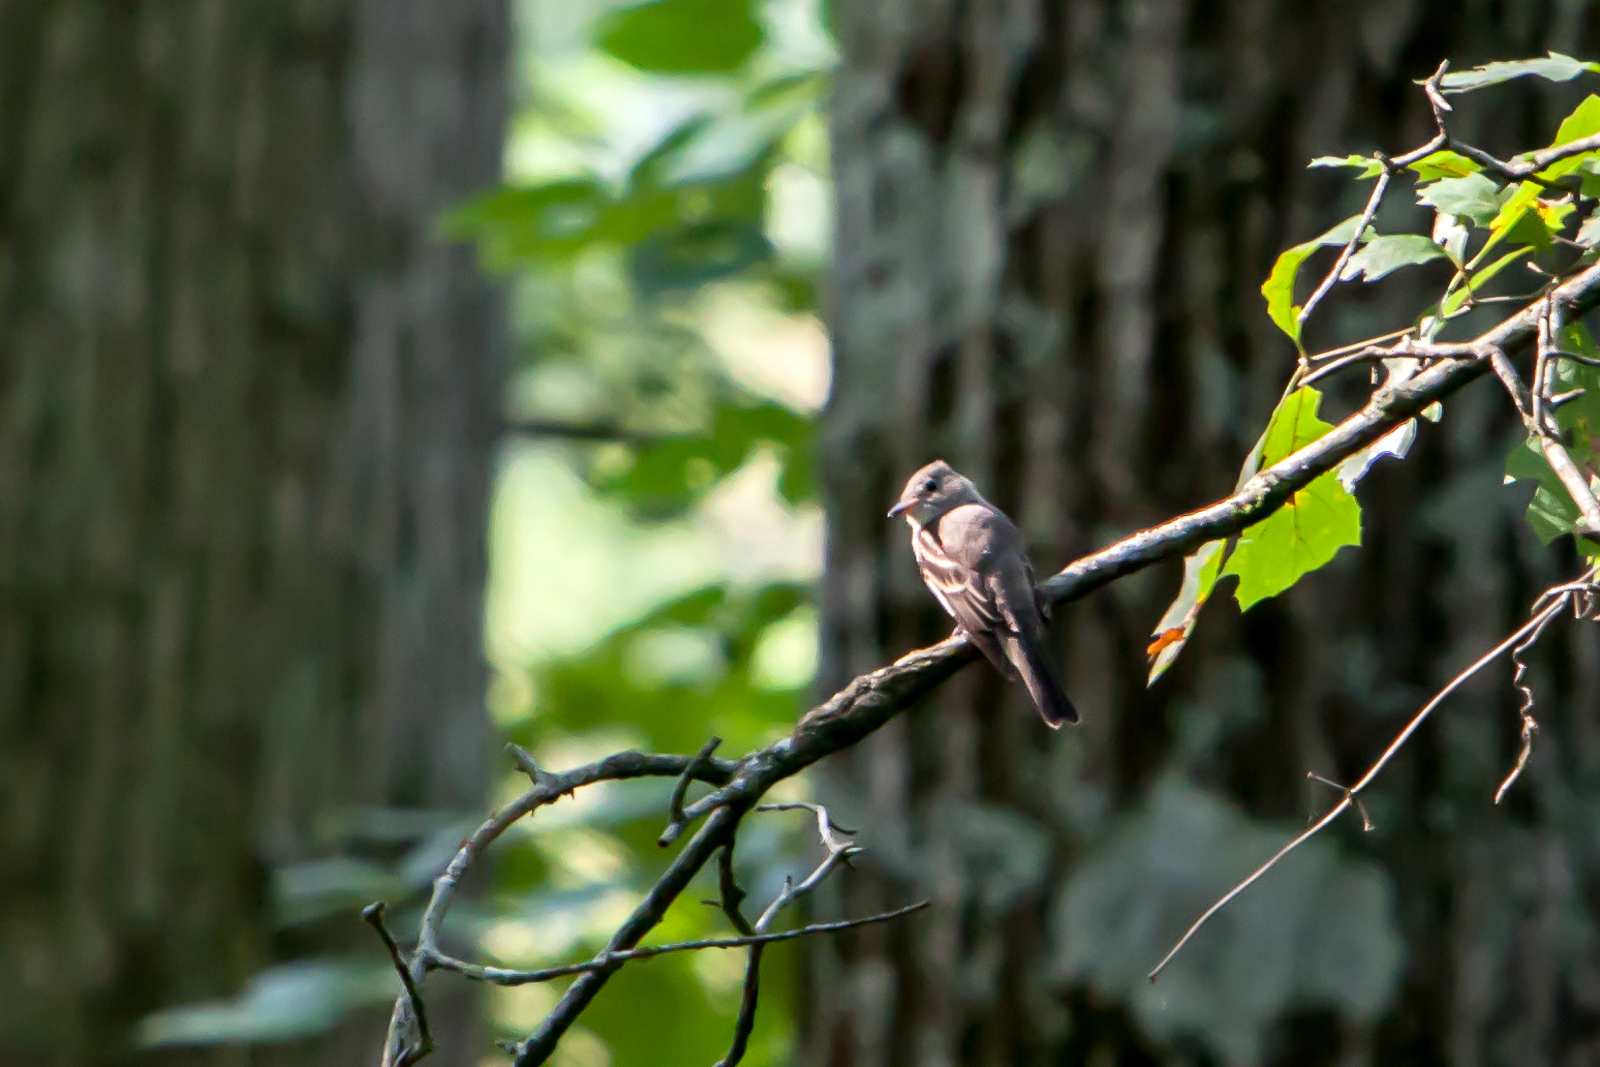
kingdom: Animalia
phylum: Chordata
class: Aves
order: Passeriformes
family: Tyrannidae
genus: Contopus
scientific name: Contopus virens
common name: Eastern wood-pewee
